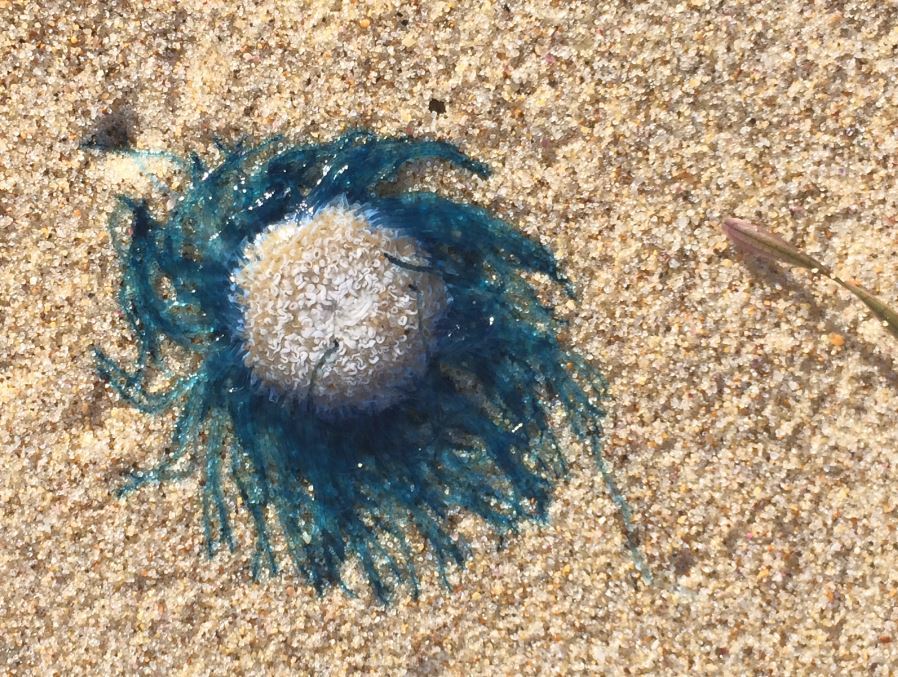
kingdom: Animalia
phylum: Cnidaria
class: Hydrozoa
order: Anthoathecata
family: Porpitidae
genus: Porpita
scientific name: Porpita porpita
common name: Blue button
